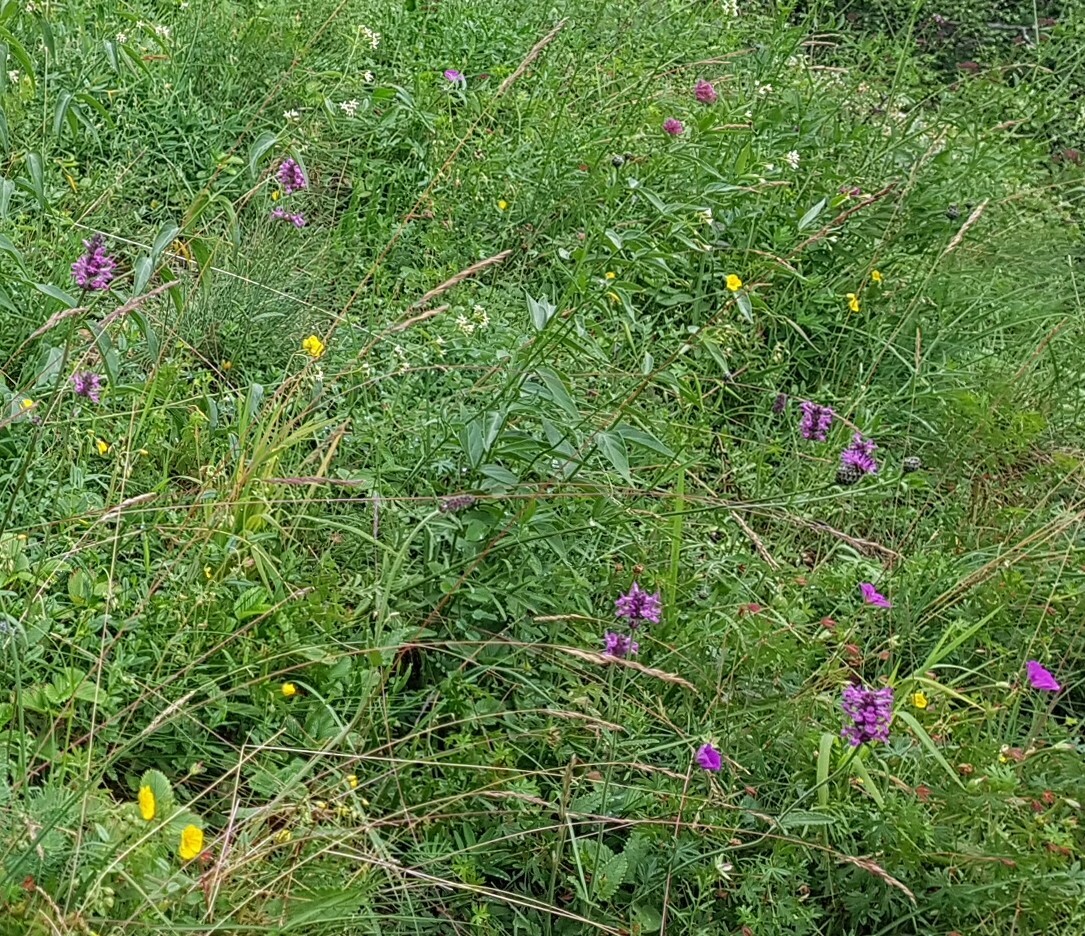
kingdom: Plantae
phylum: Tracheophyta
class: Magnoliopsida
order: Lamiales
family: Lamiaceae
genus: Betonica
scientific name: Betonica officinalis
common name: Bishop's-wort
